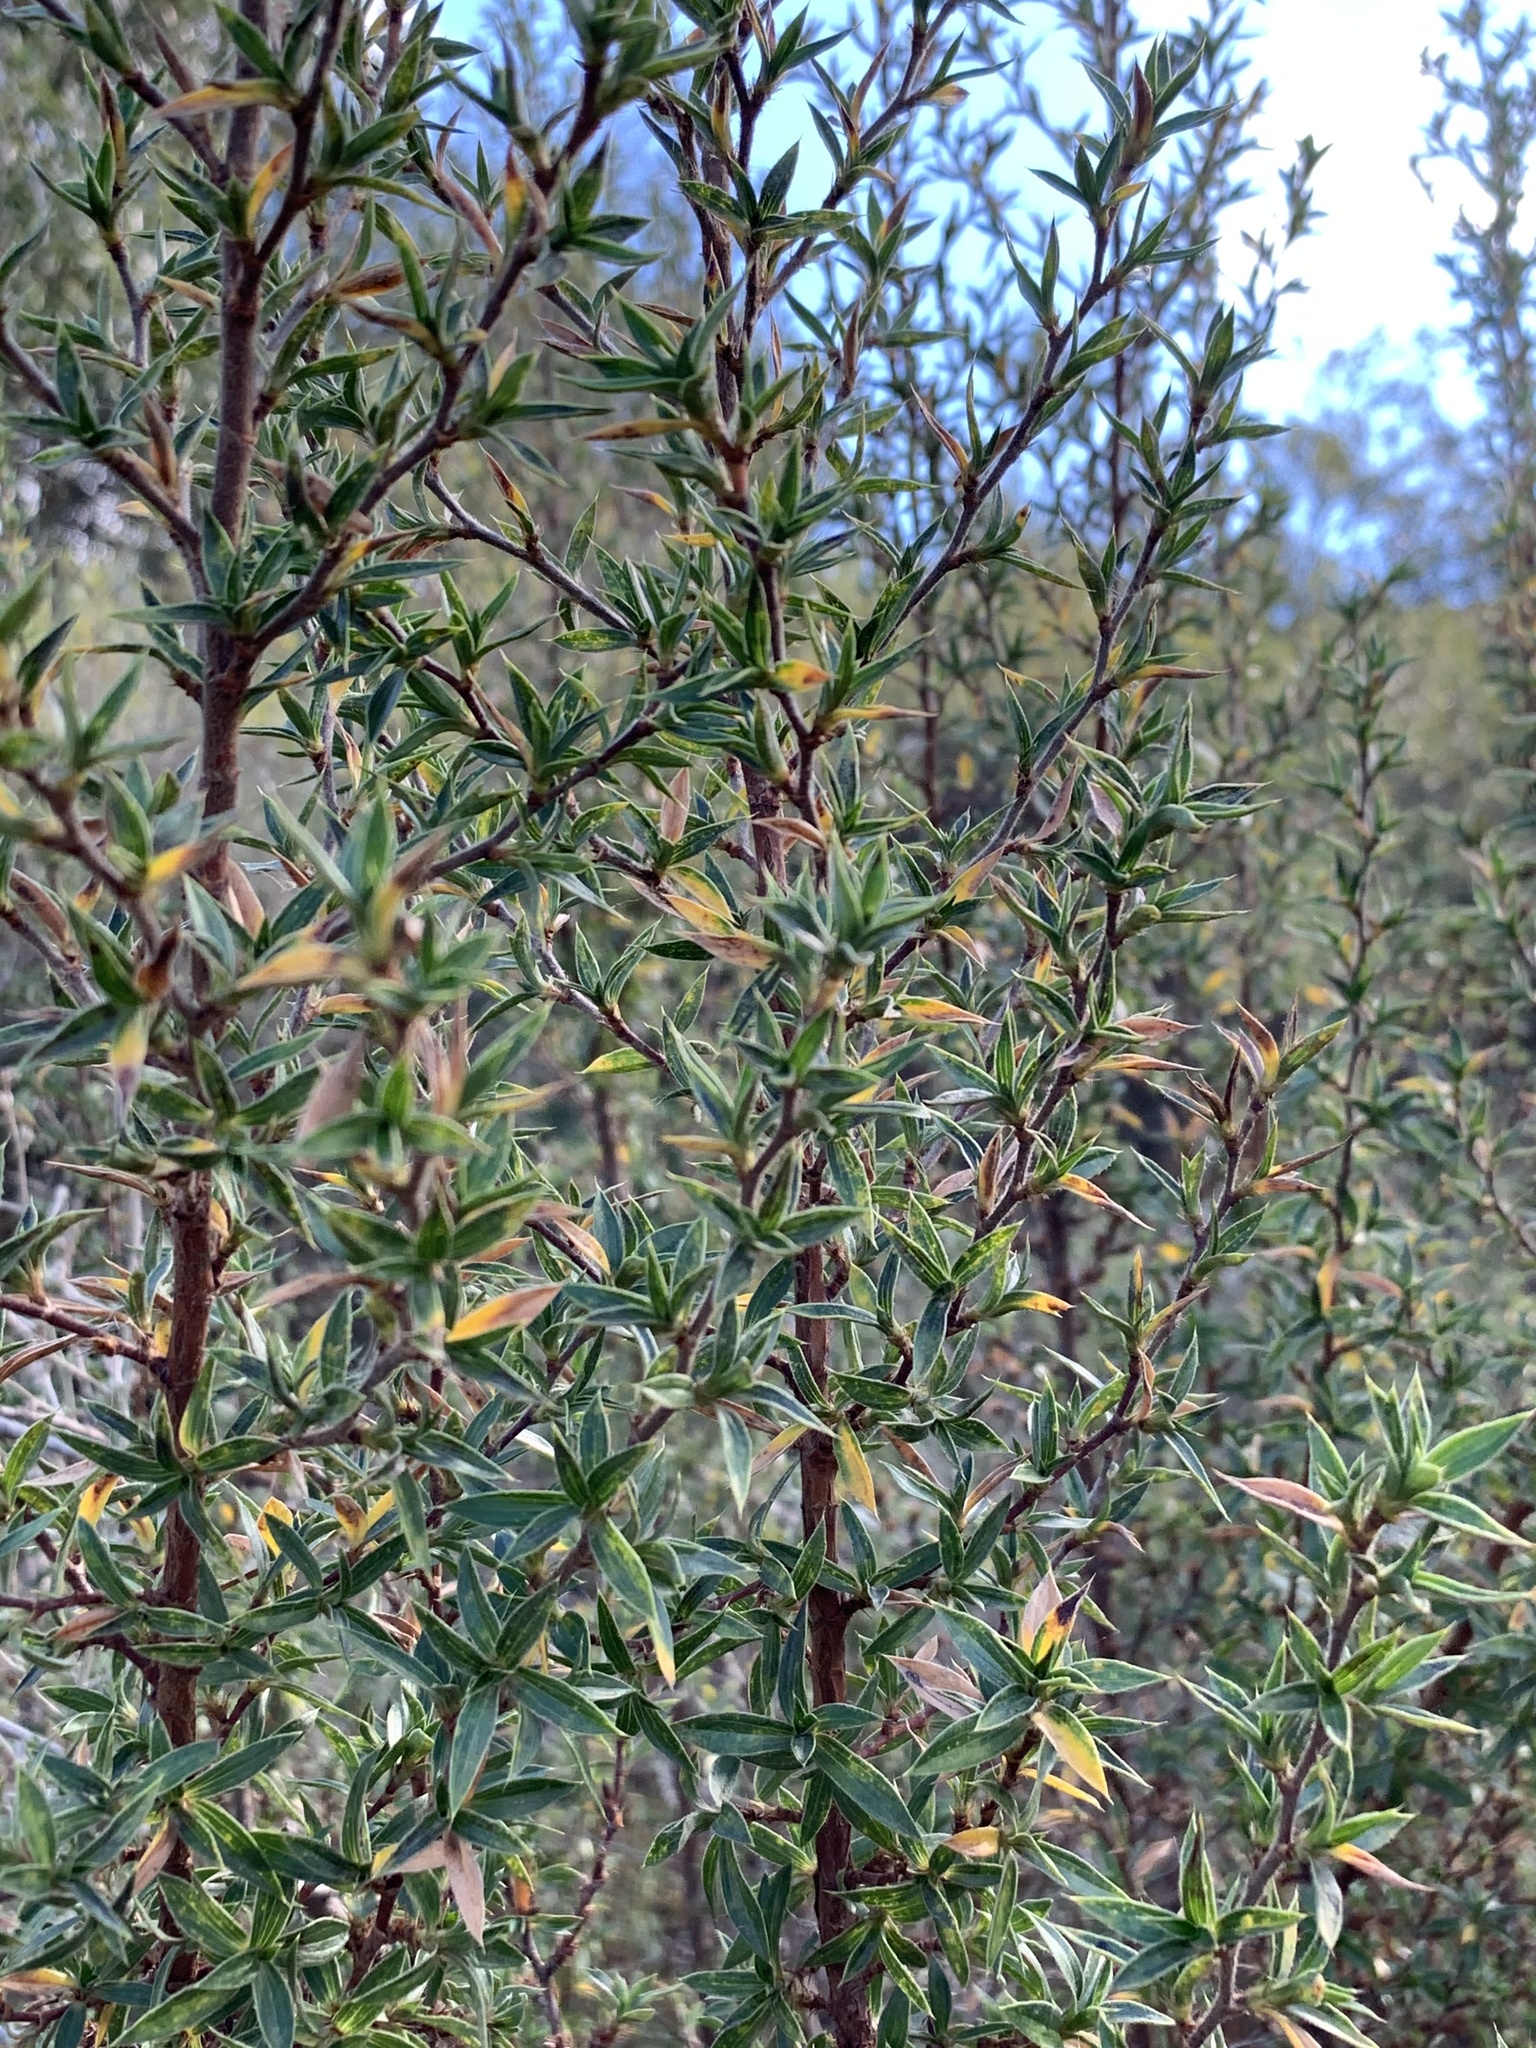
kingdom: Plantae
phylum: Tracheophyta
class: Magnoliopsida
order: Rosales
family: Rosaceae
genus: Cliffortia
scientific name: Cliffortia ruscifolia
